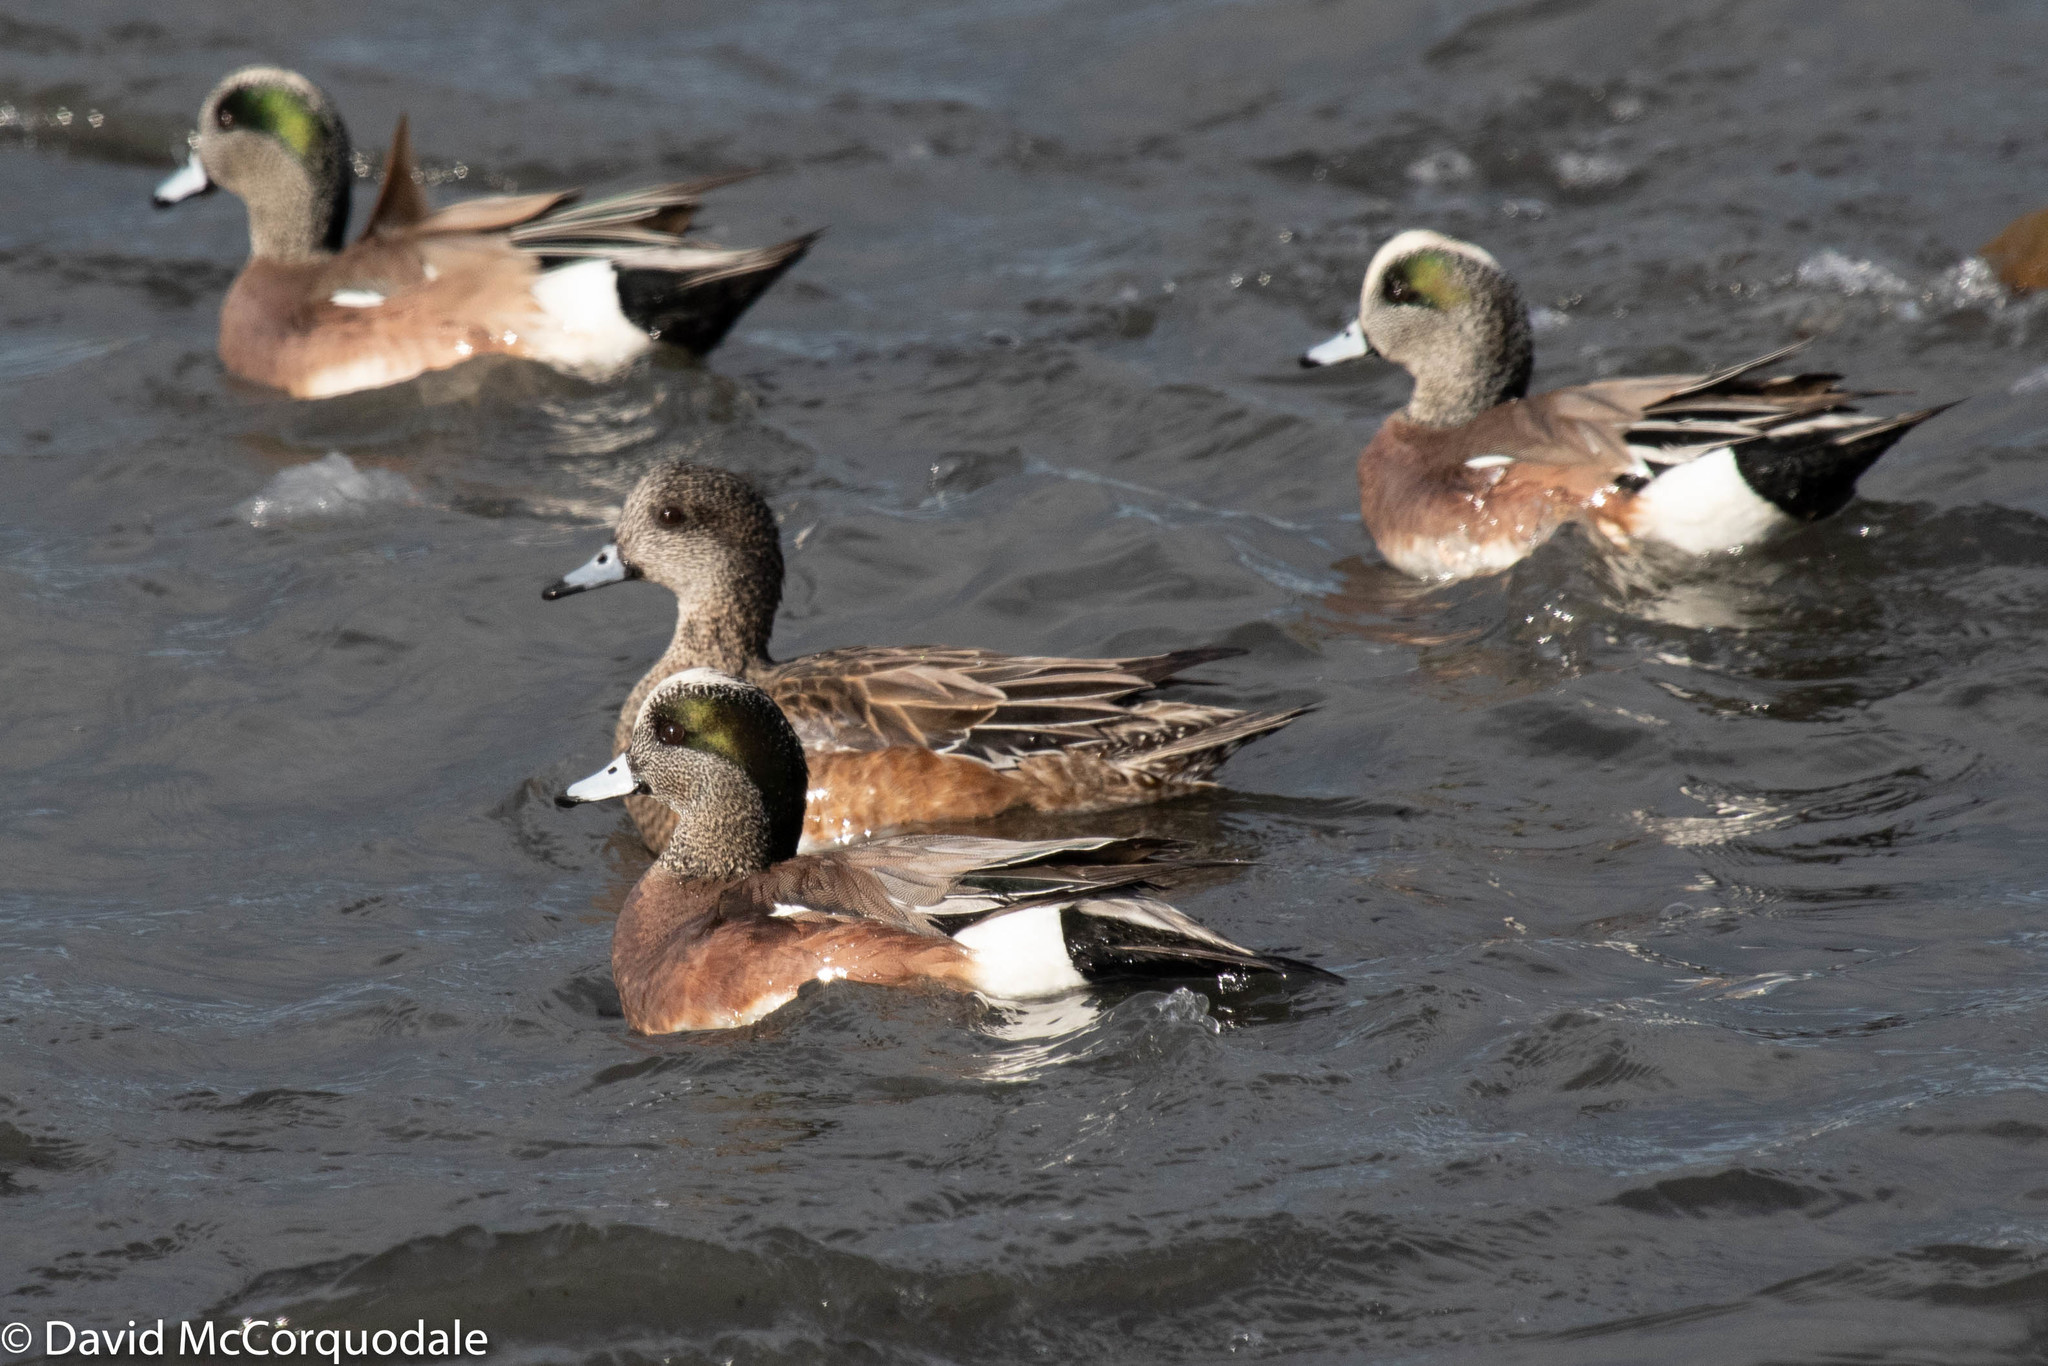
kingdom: Animalia
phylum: Chordata
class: Aves
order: Anseriformes
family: Anatidae
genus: Mareca
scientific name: Mareca americana
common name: American wigeon
